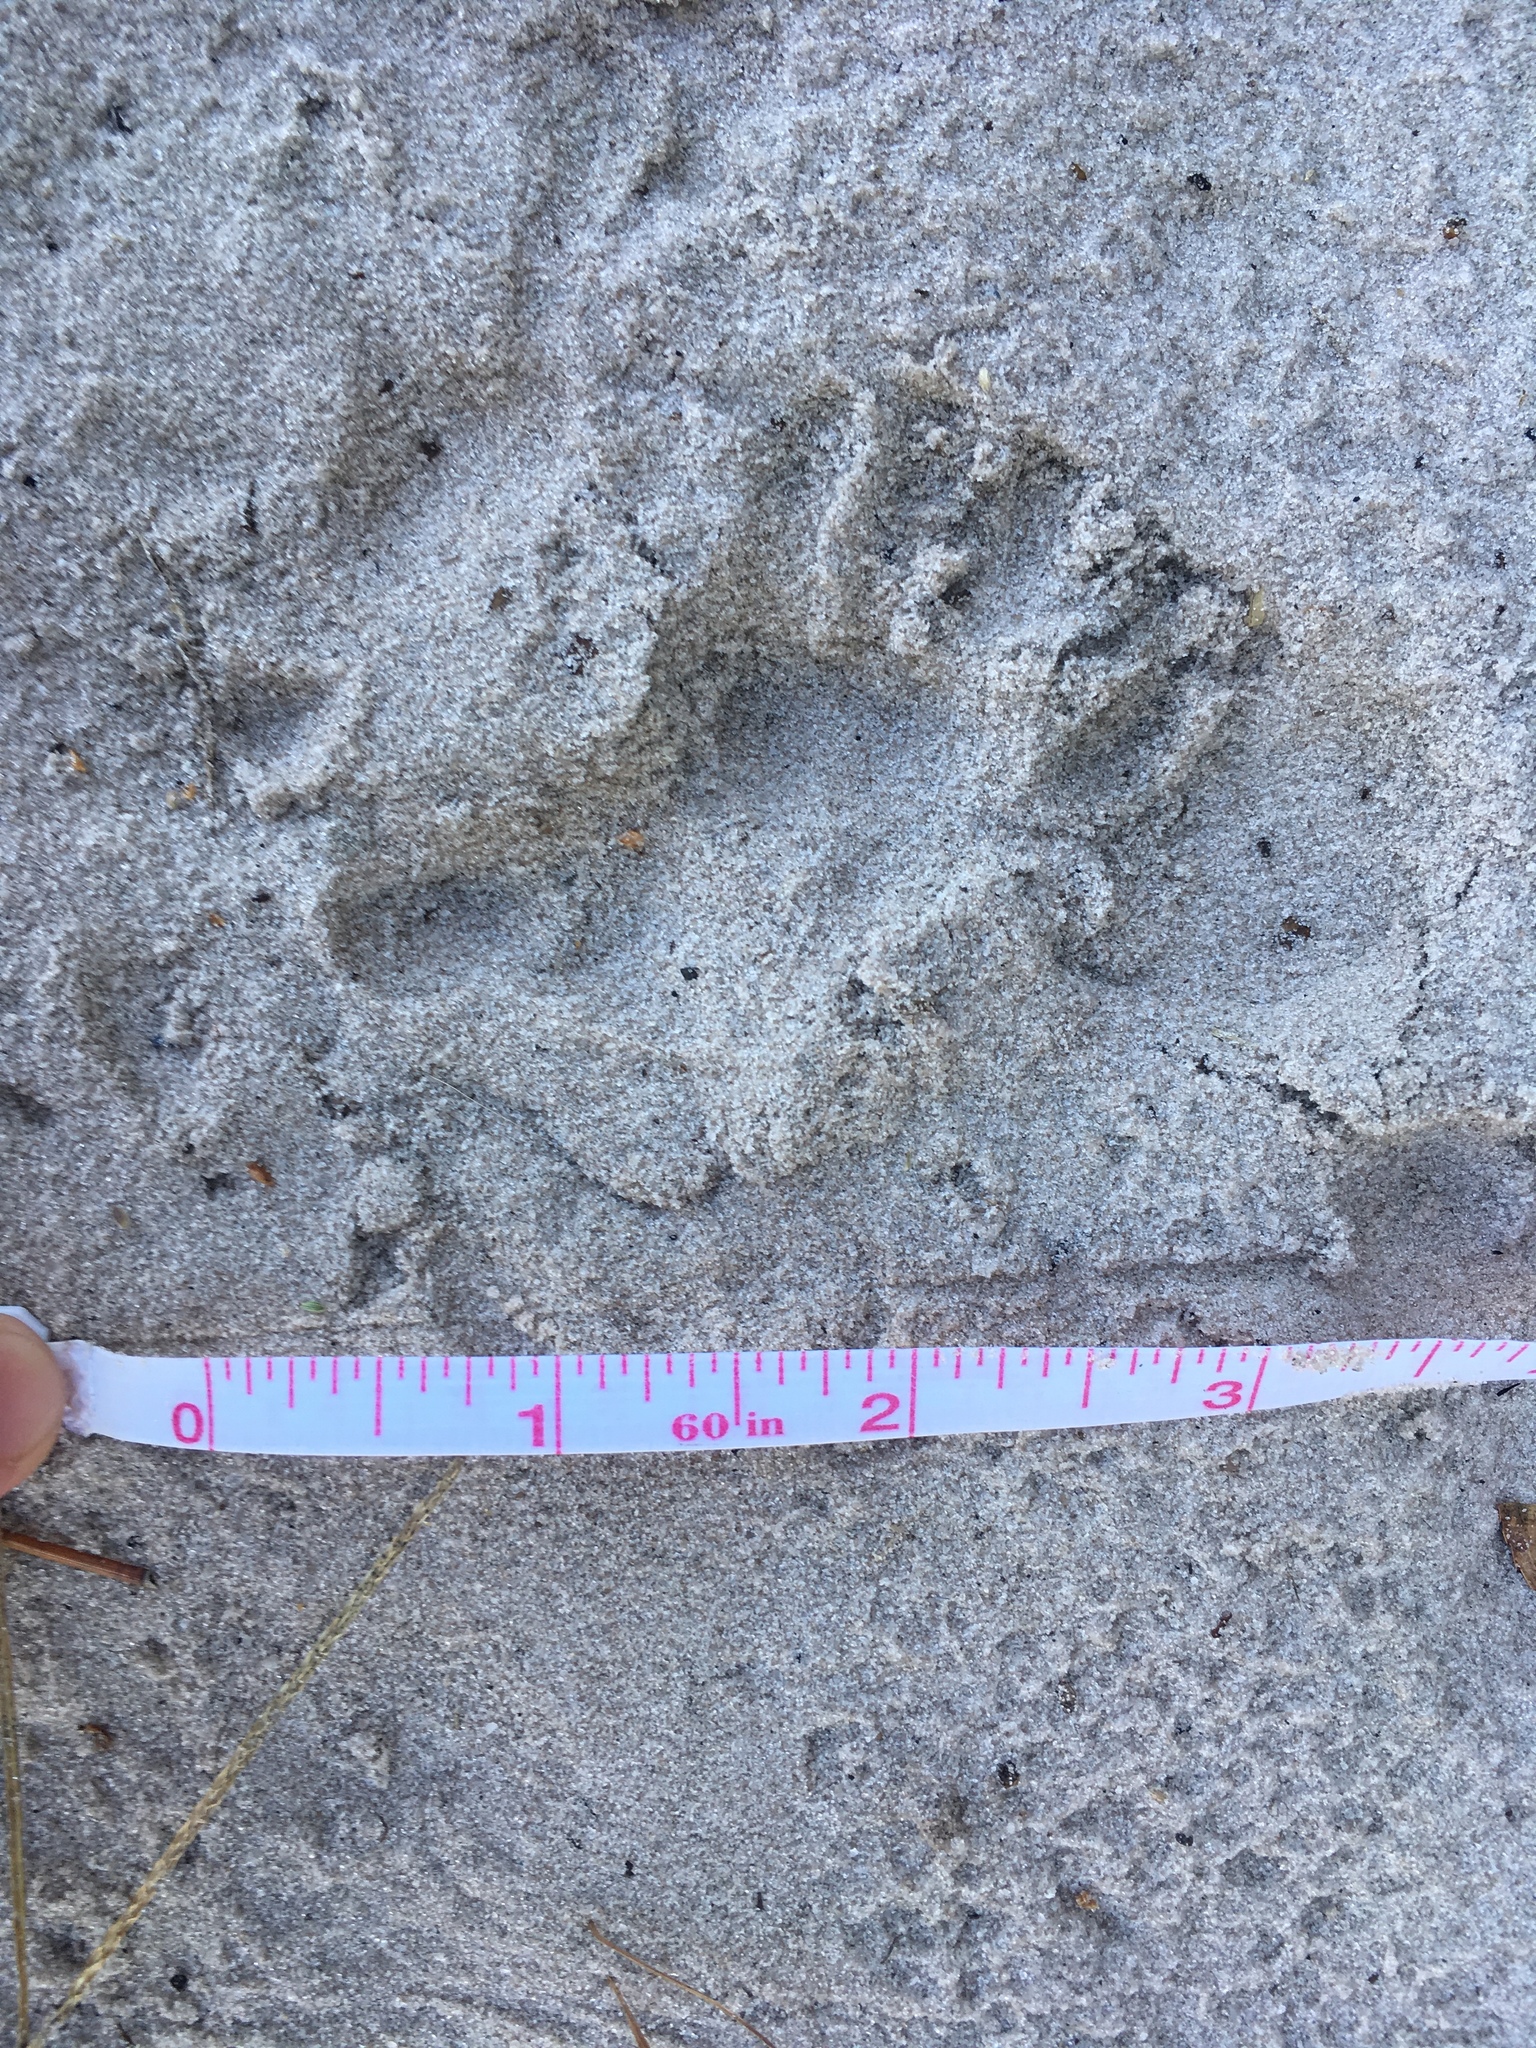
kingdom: Animalia
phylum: Chordata
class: Mammalia
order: Didelphimorphia
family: Didelphidae
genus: Didelphis
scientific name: Didelphis virginiana
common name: Virginia opossum
